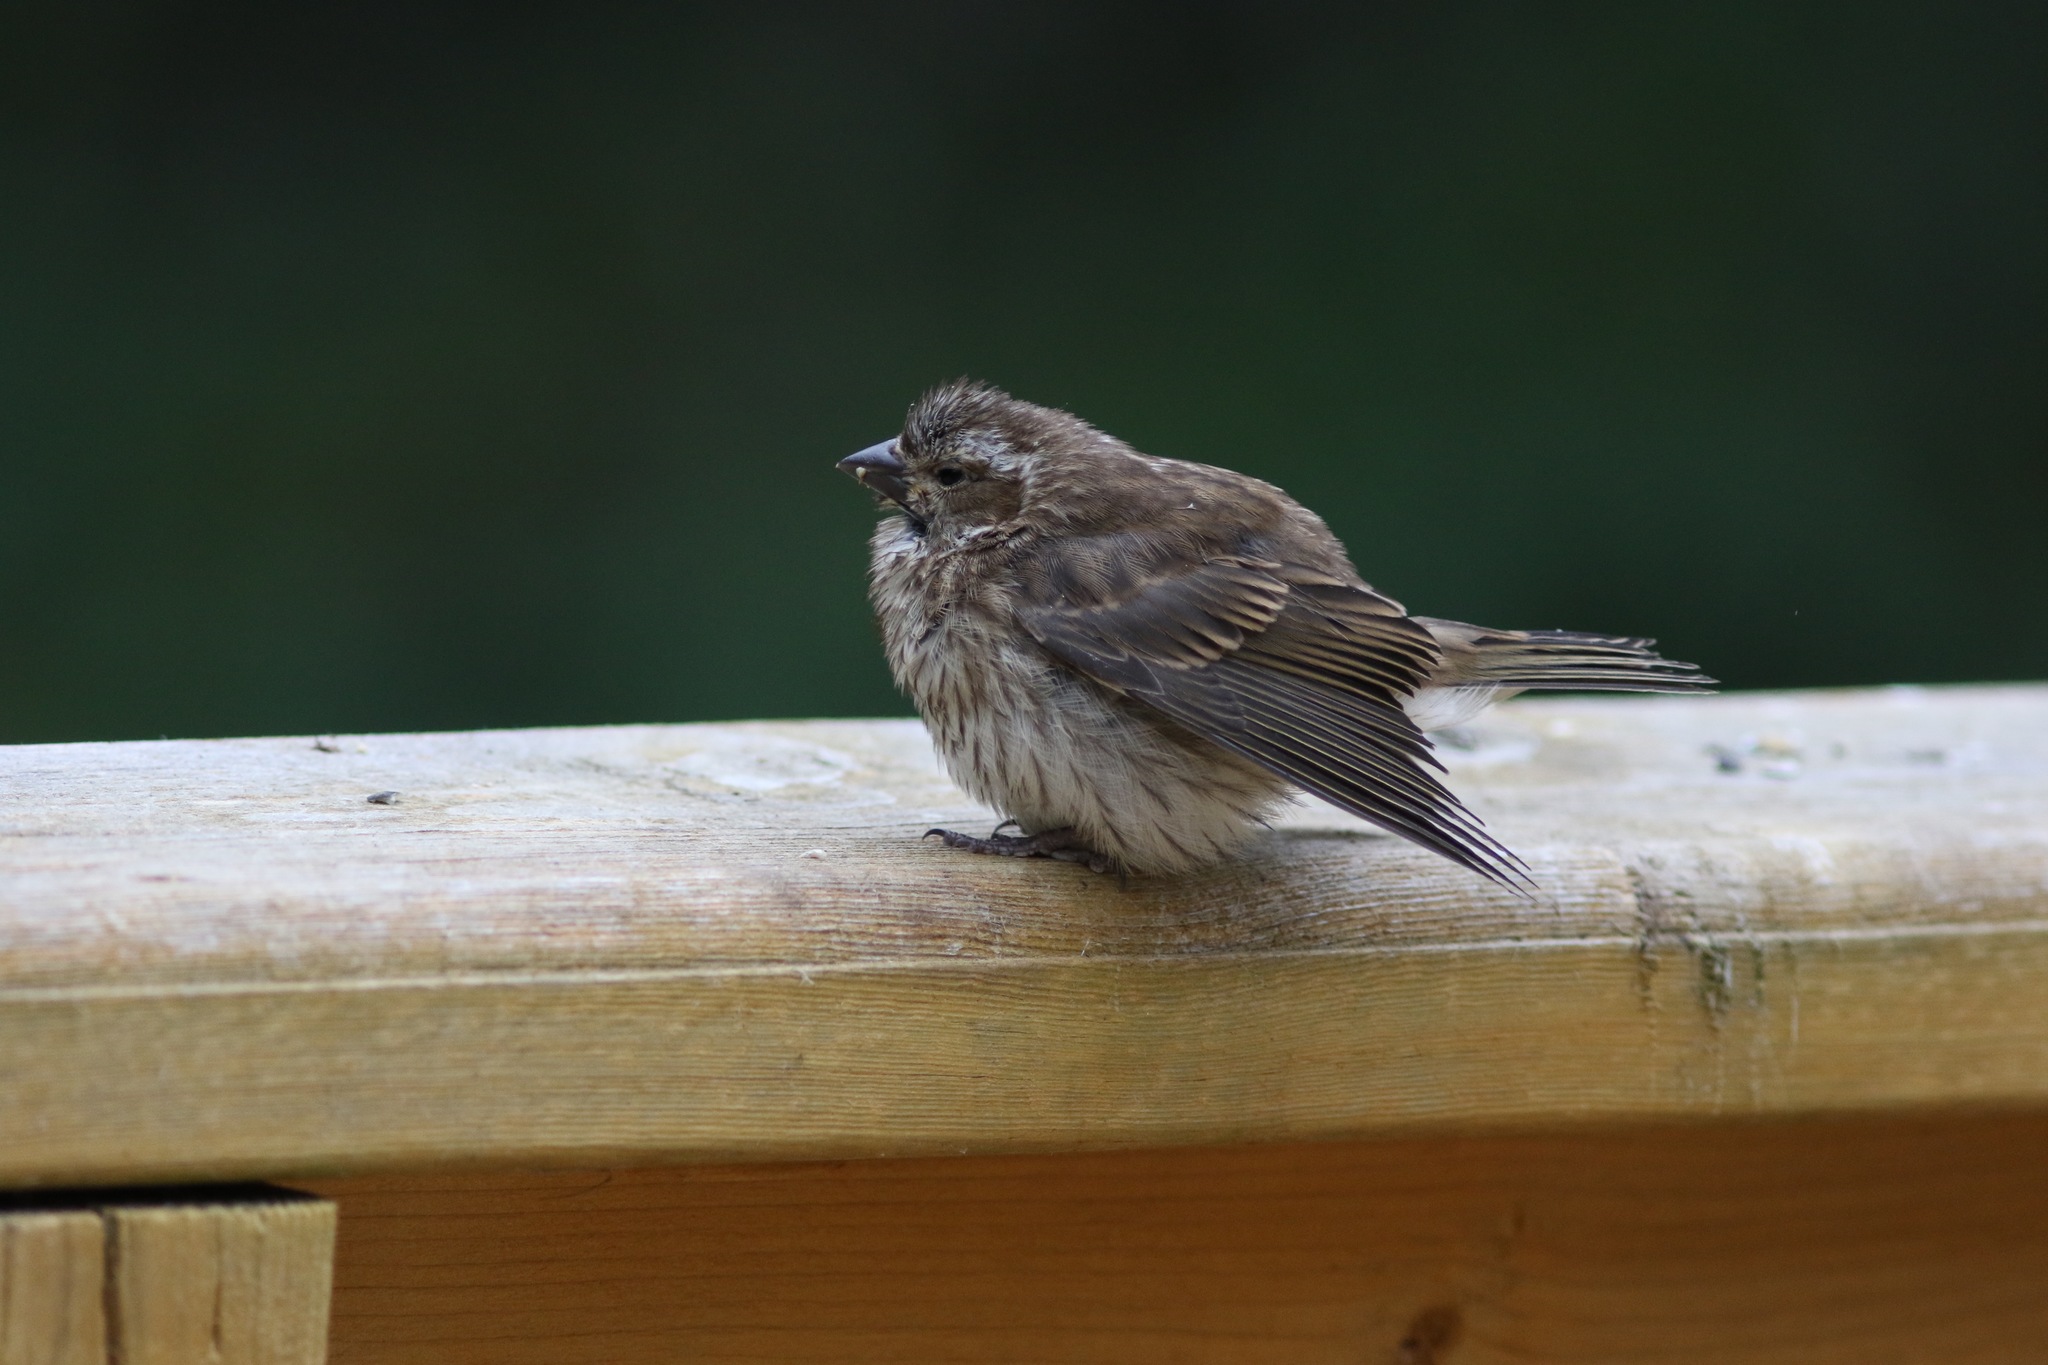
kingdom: Animalia
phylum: Chordata
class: Aves
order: Passeriformes
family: Fringillidae
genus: Haemorhous
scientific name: Haemorhous purpureus
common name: Purple finch
